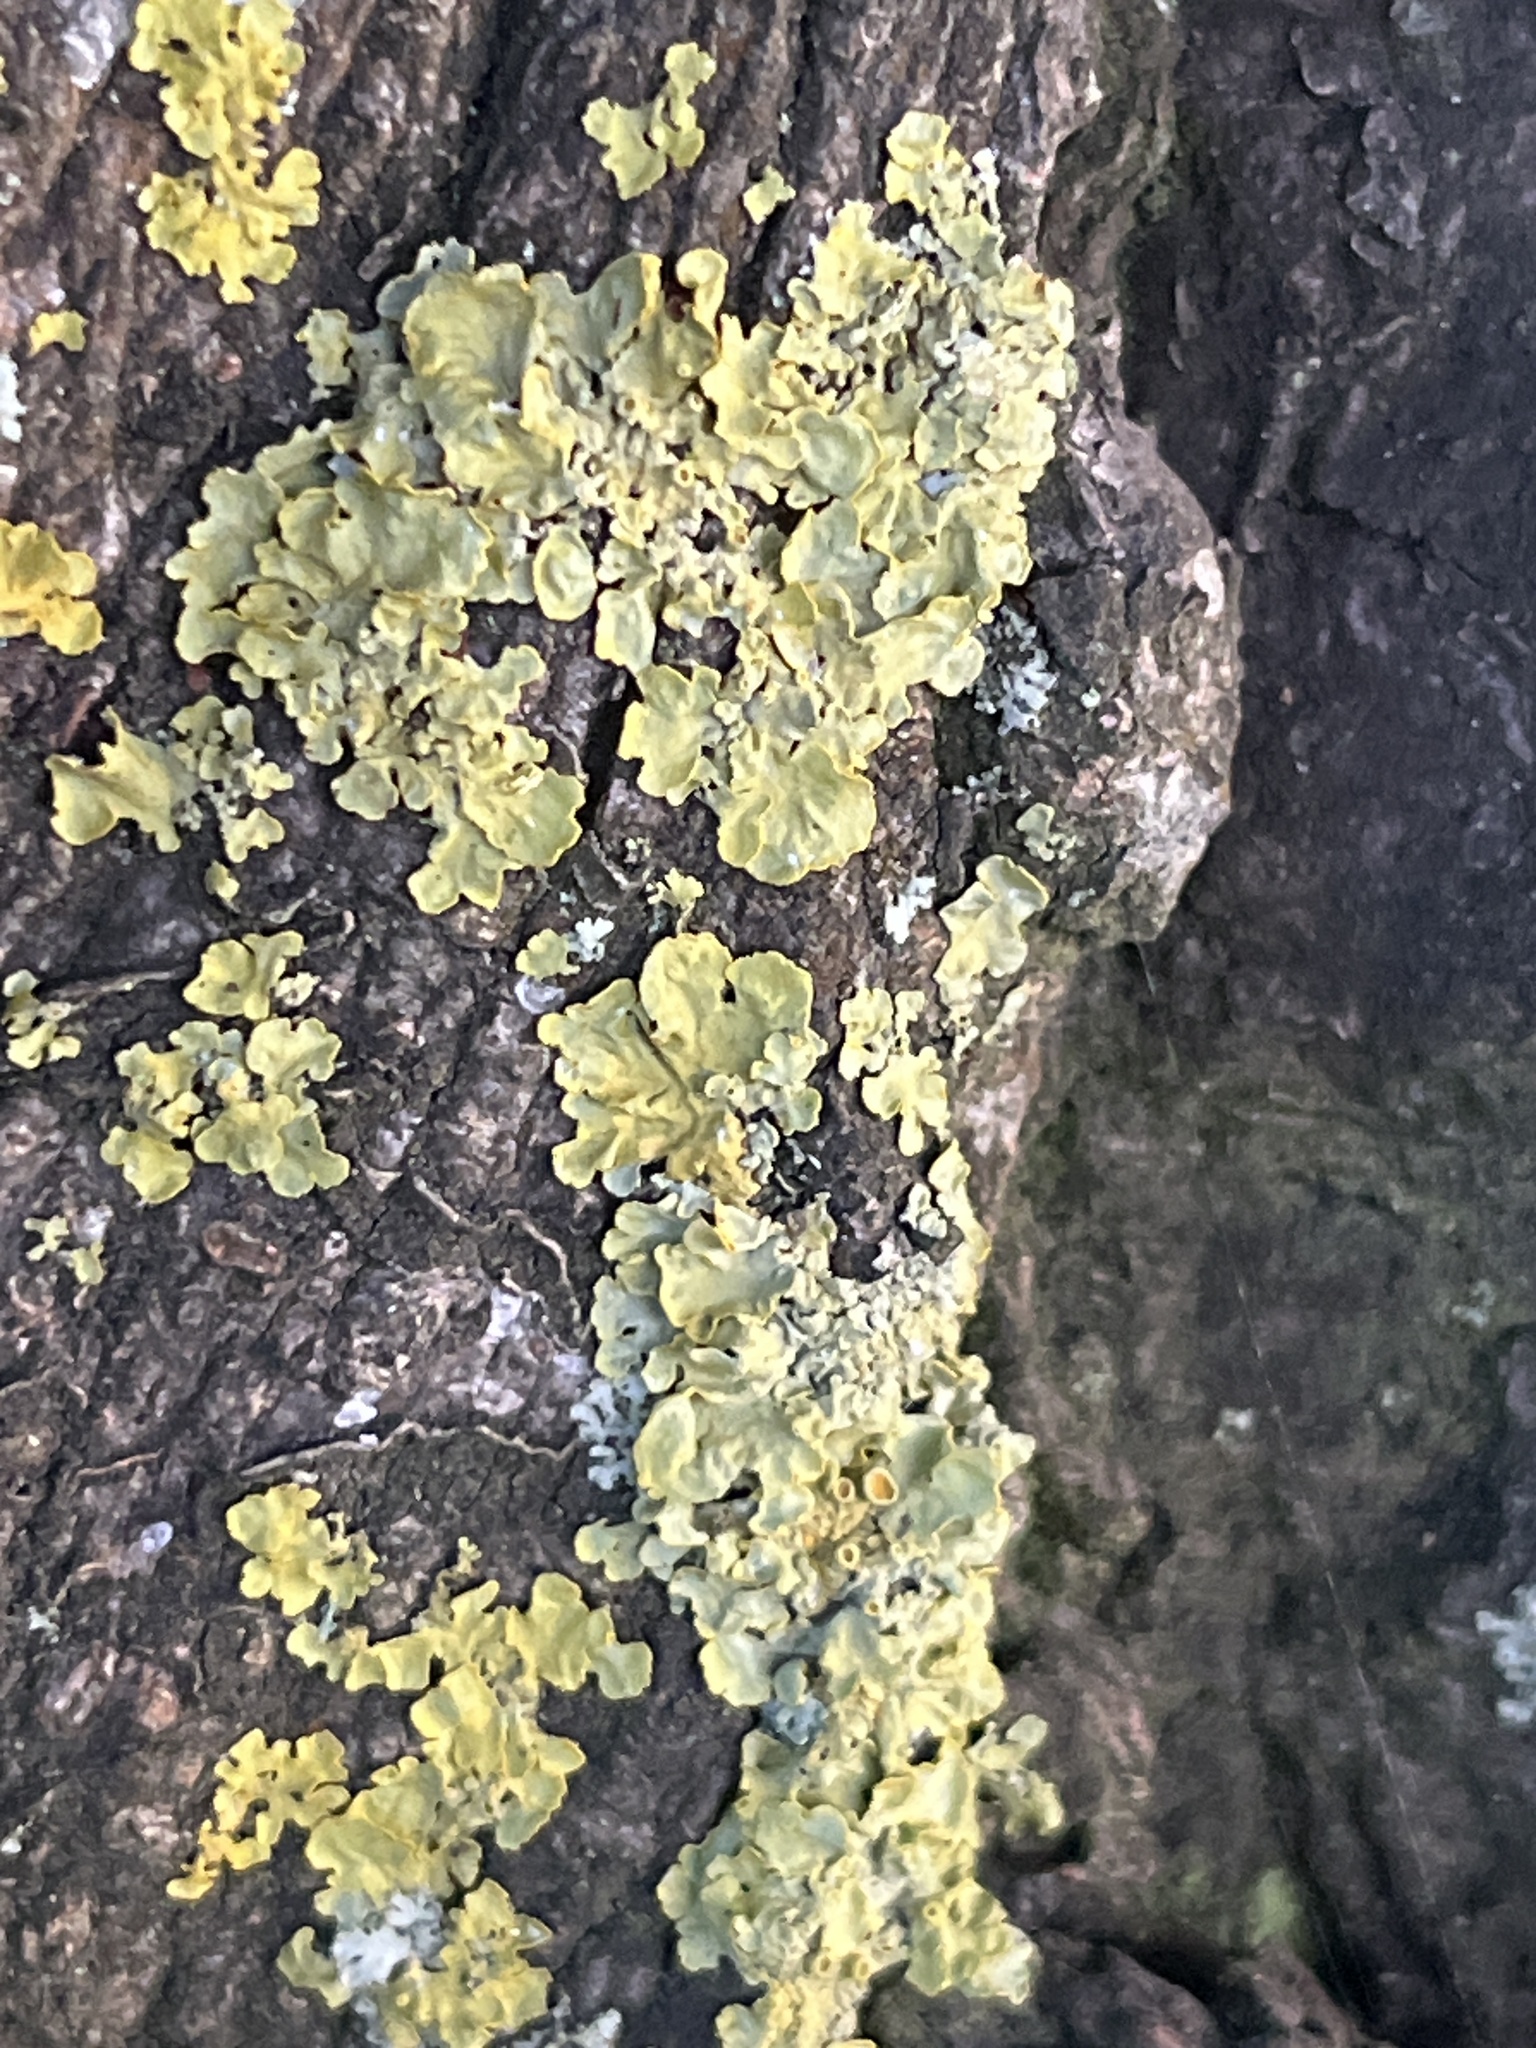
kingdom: Fungi
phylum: Ascomycota
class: Lecanoromycetes
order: Teloschistales
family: Teloschistaceae
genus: Xanthoria
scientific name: Xanthoria parietina
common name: Common orange lichen
